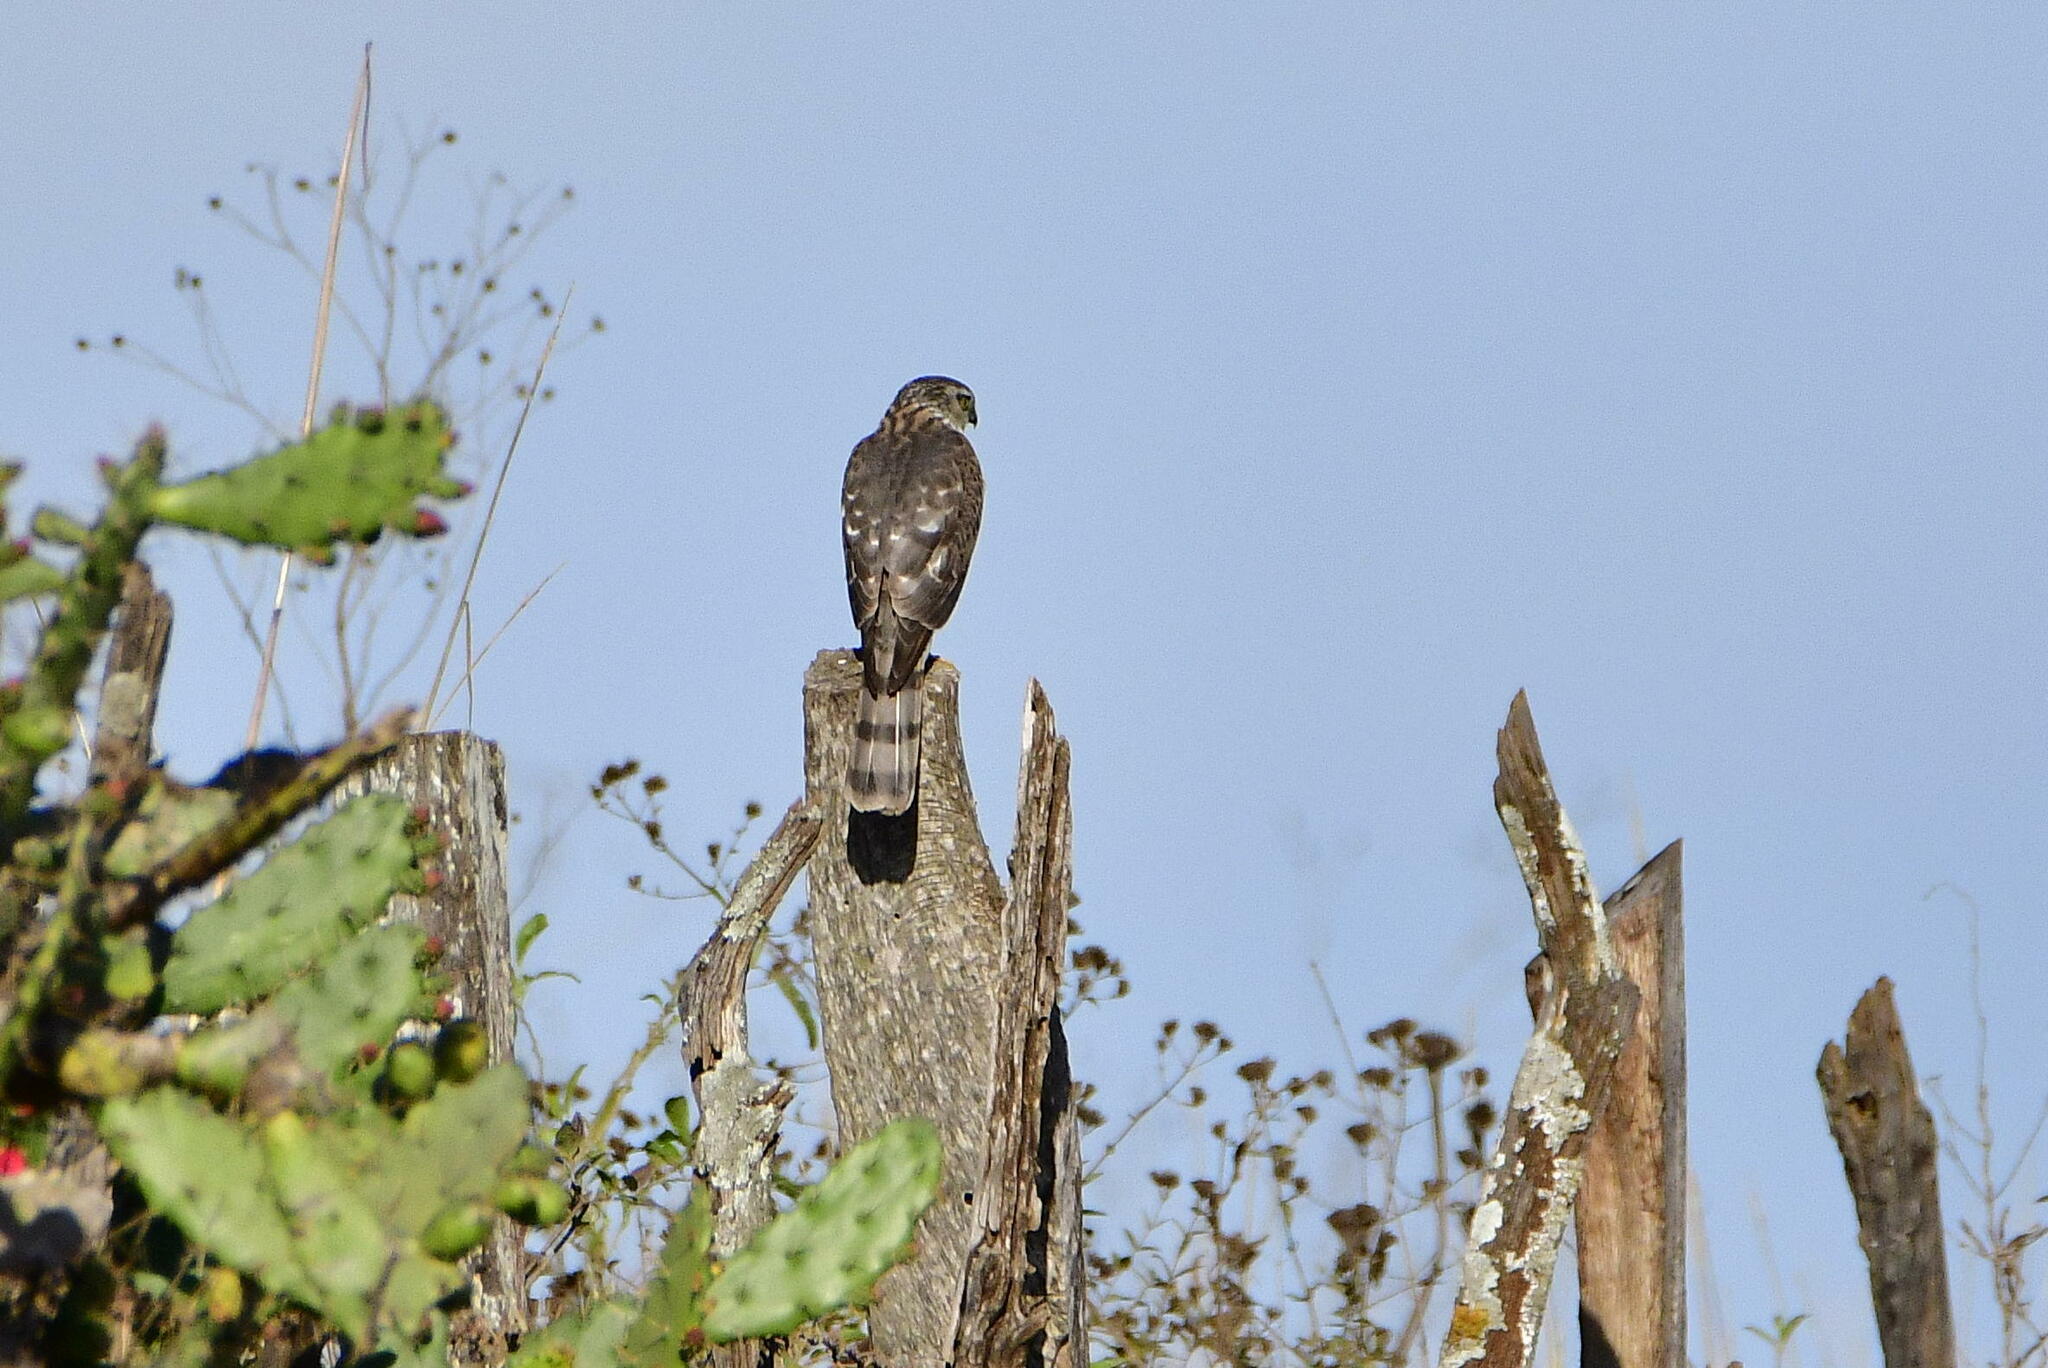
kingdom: Animalia
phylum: Chordata
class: Aves
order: Accipitriformes
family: Accipitridae
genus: Accipiter
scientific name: Accipiter striatus
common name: Sharp-shinned hawk
